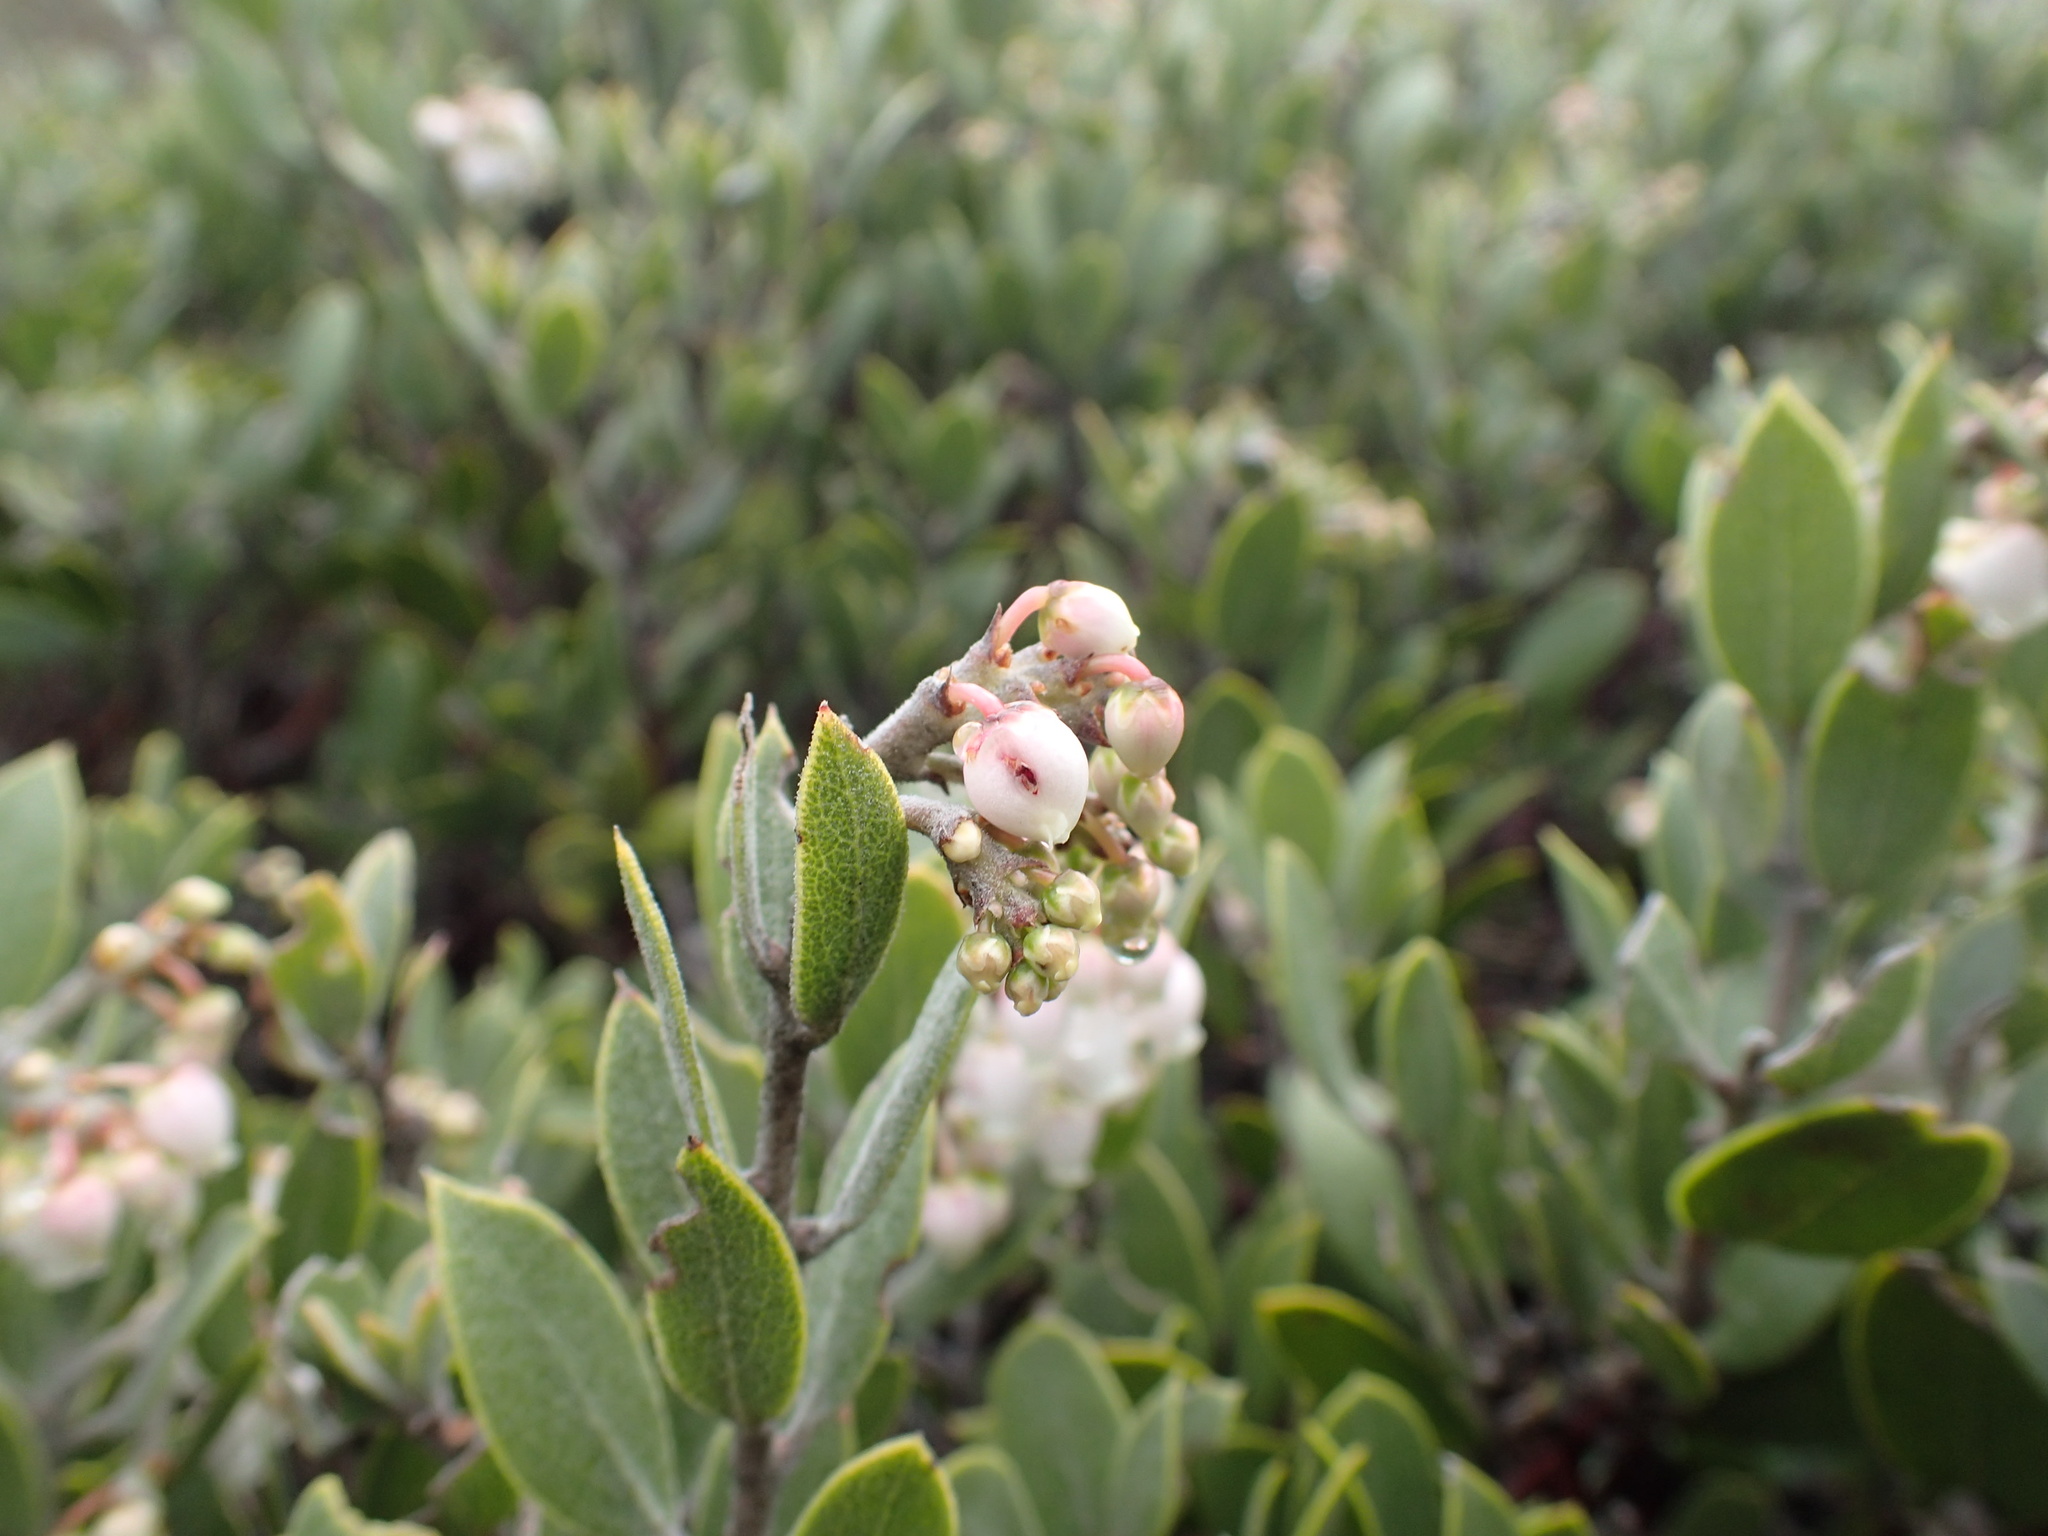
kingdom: Plantae
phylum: Tracheophyta
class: Magnoliopsida
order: Ericales
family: Ericaceae
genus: Arctostaphylos
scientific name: Arctostaphylos montana
